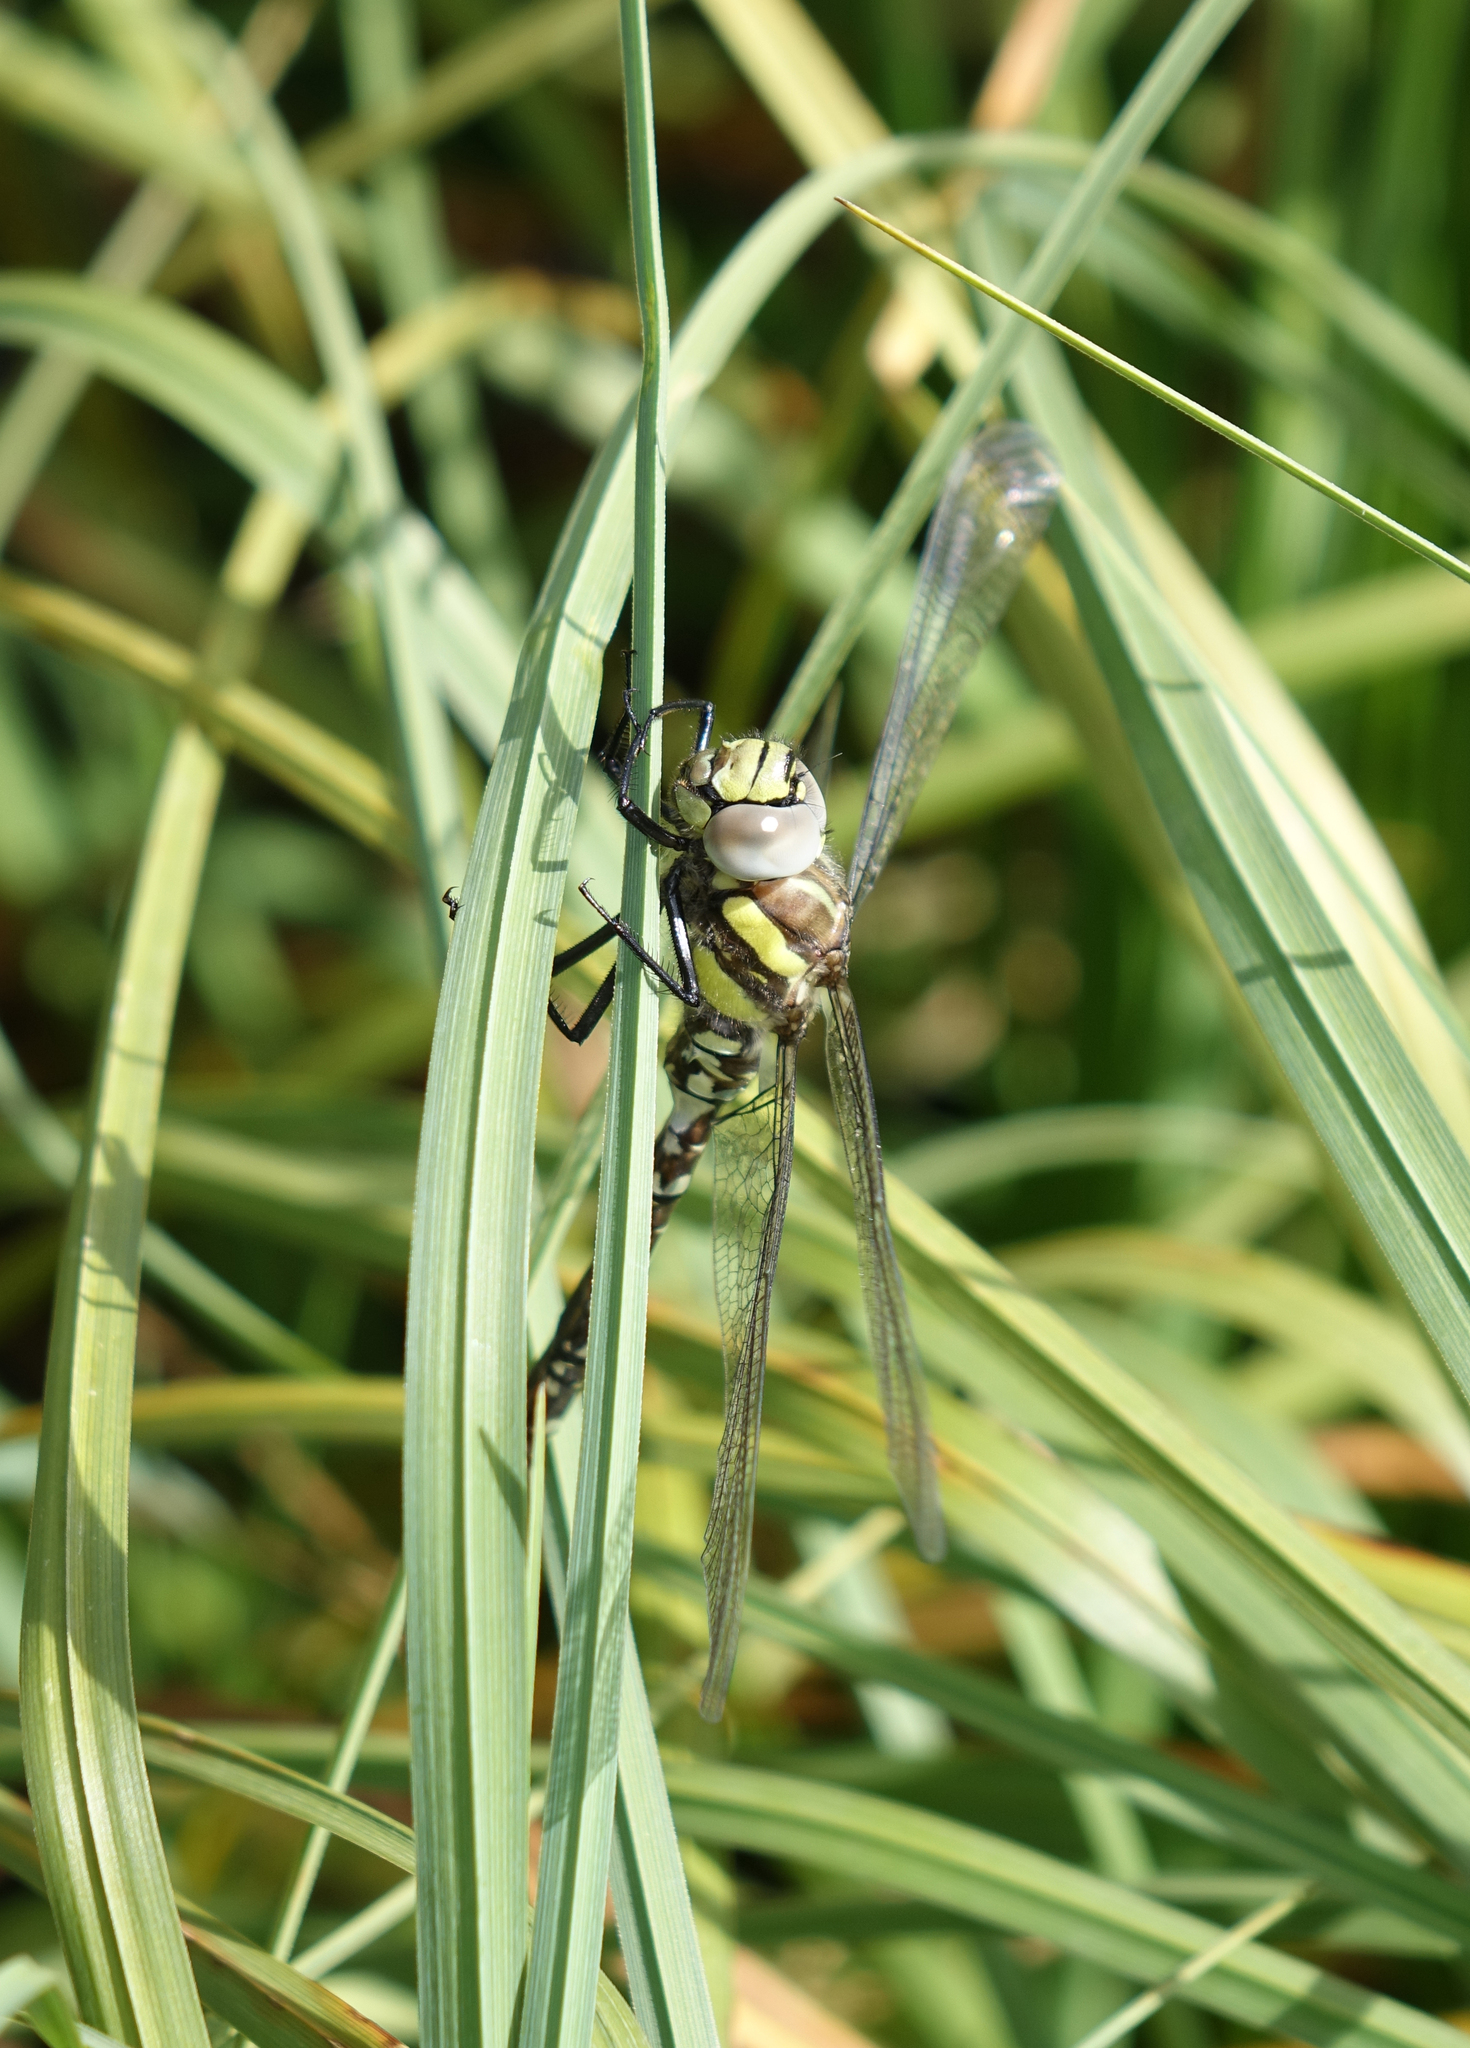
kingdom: Animalia
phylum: Arthropoda
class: Insecta
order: Odonata
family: Aeshnidae
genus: Aeshna
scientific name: Aeshna juncea
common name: Moorland hawker
